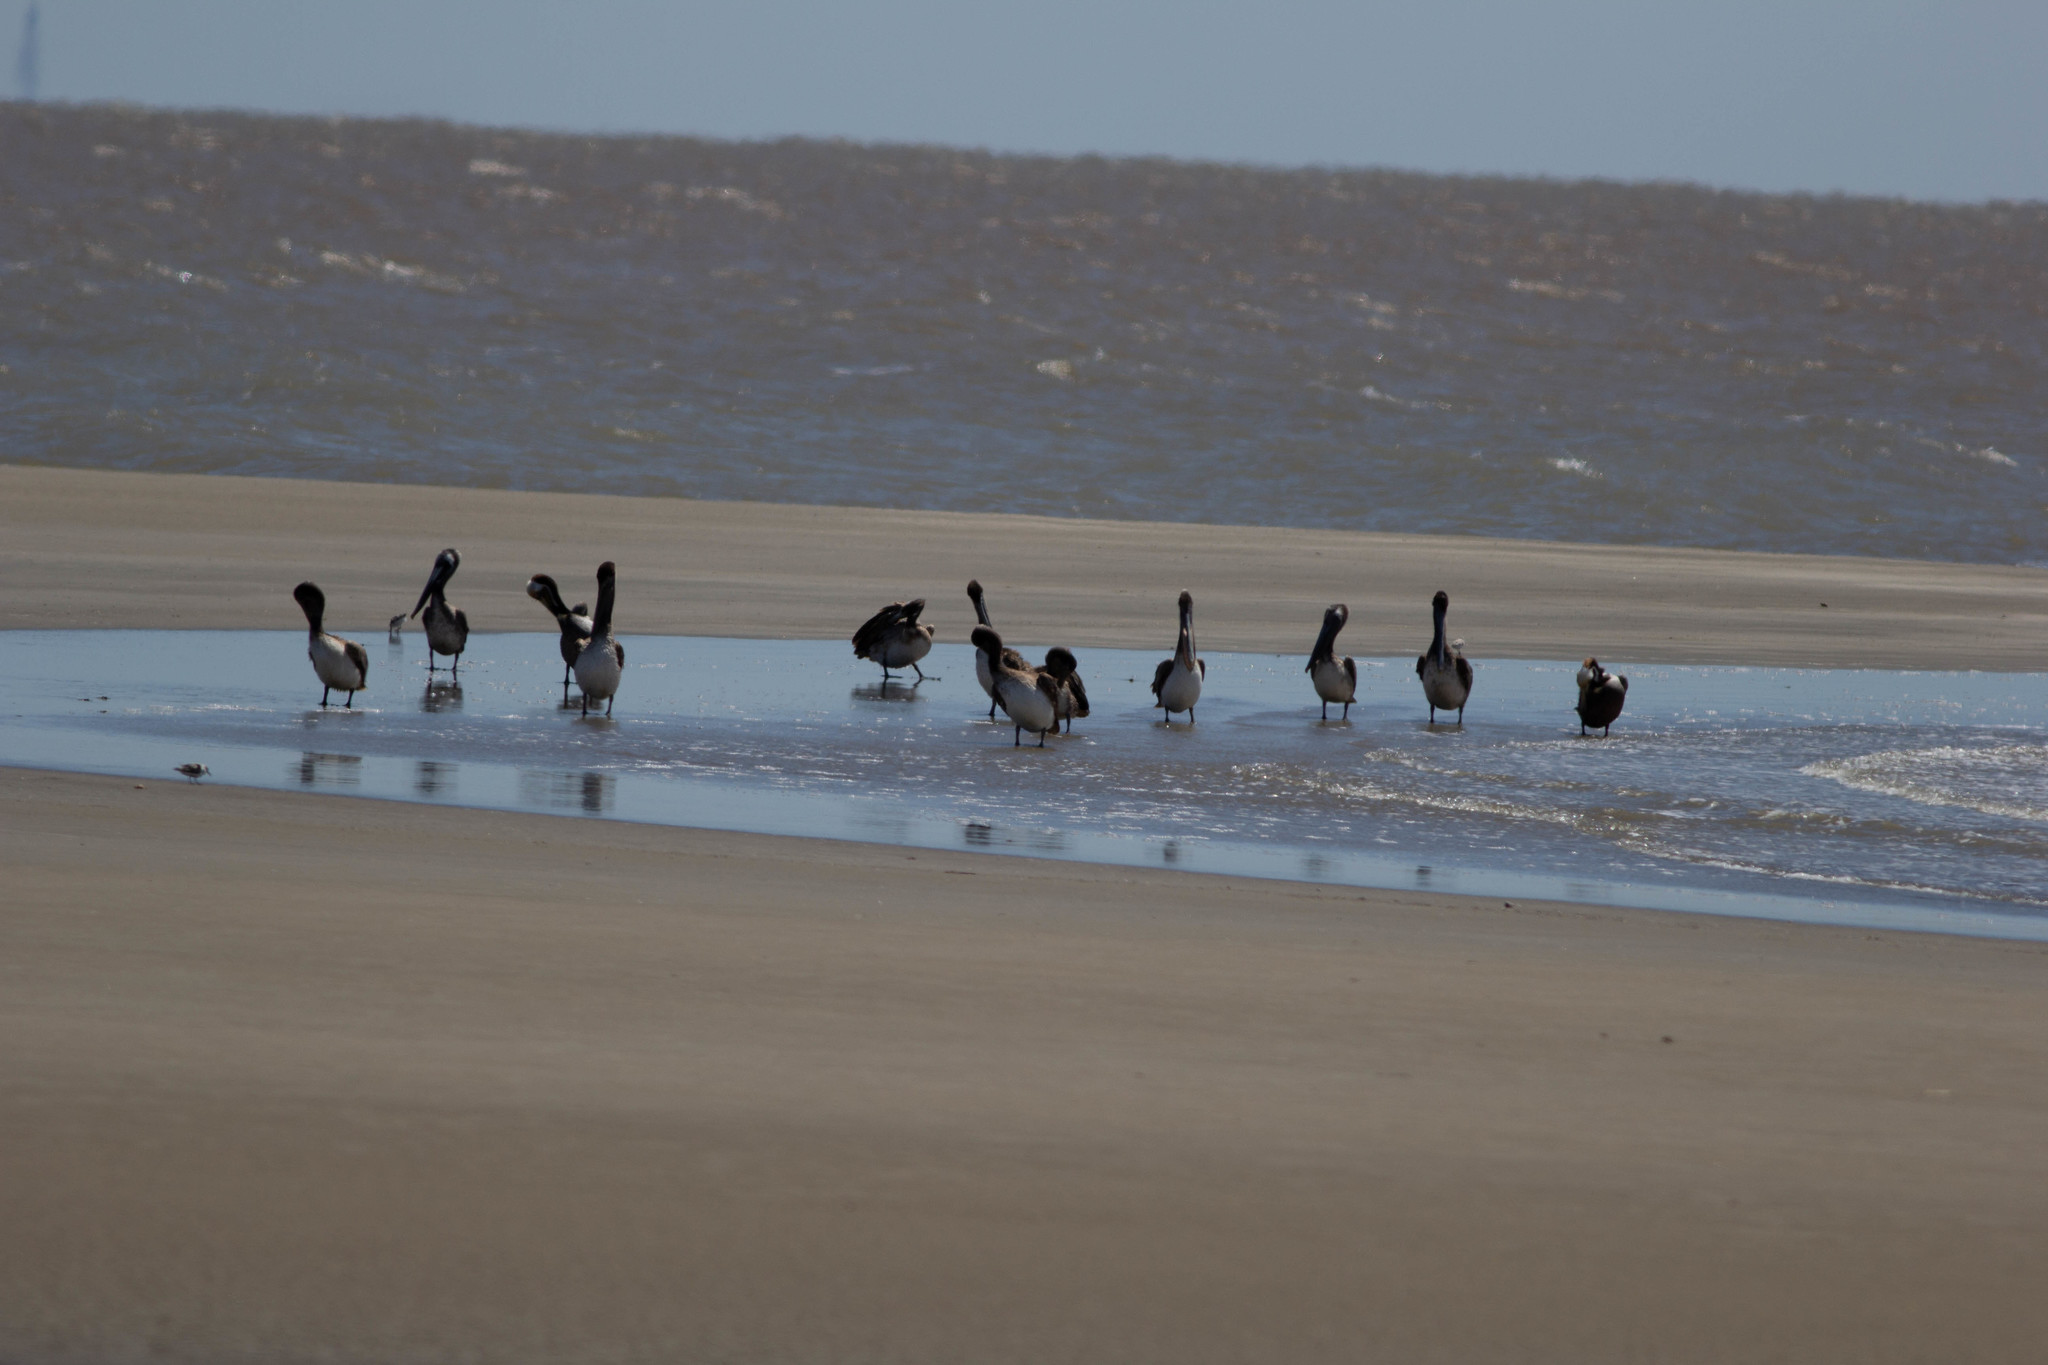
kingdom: Animalia
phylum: Chordata
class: Aves
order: Pelecaniformes
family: Pelecanidae
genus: Pelecanus
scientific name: Pelecanus occidentalis
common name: Brown pelican
